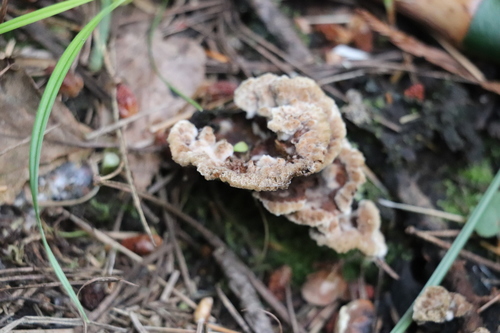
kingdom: Fungi
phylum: Basidiomycota
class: Agaricomycetes
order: Thelephorales
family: Thelephoraceae
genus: Thelephora
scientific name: Thelephora terrestris
